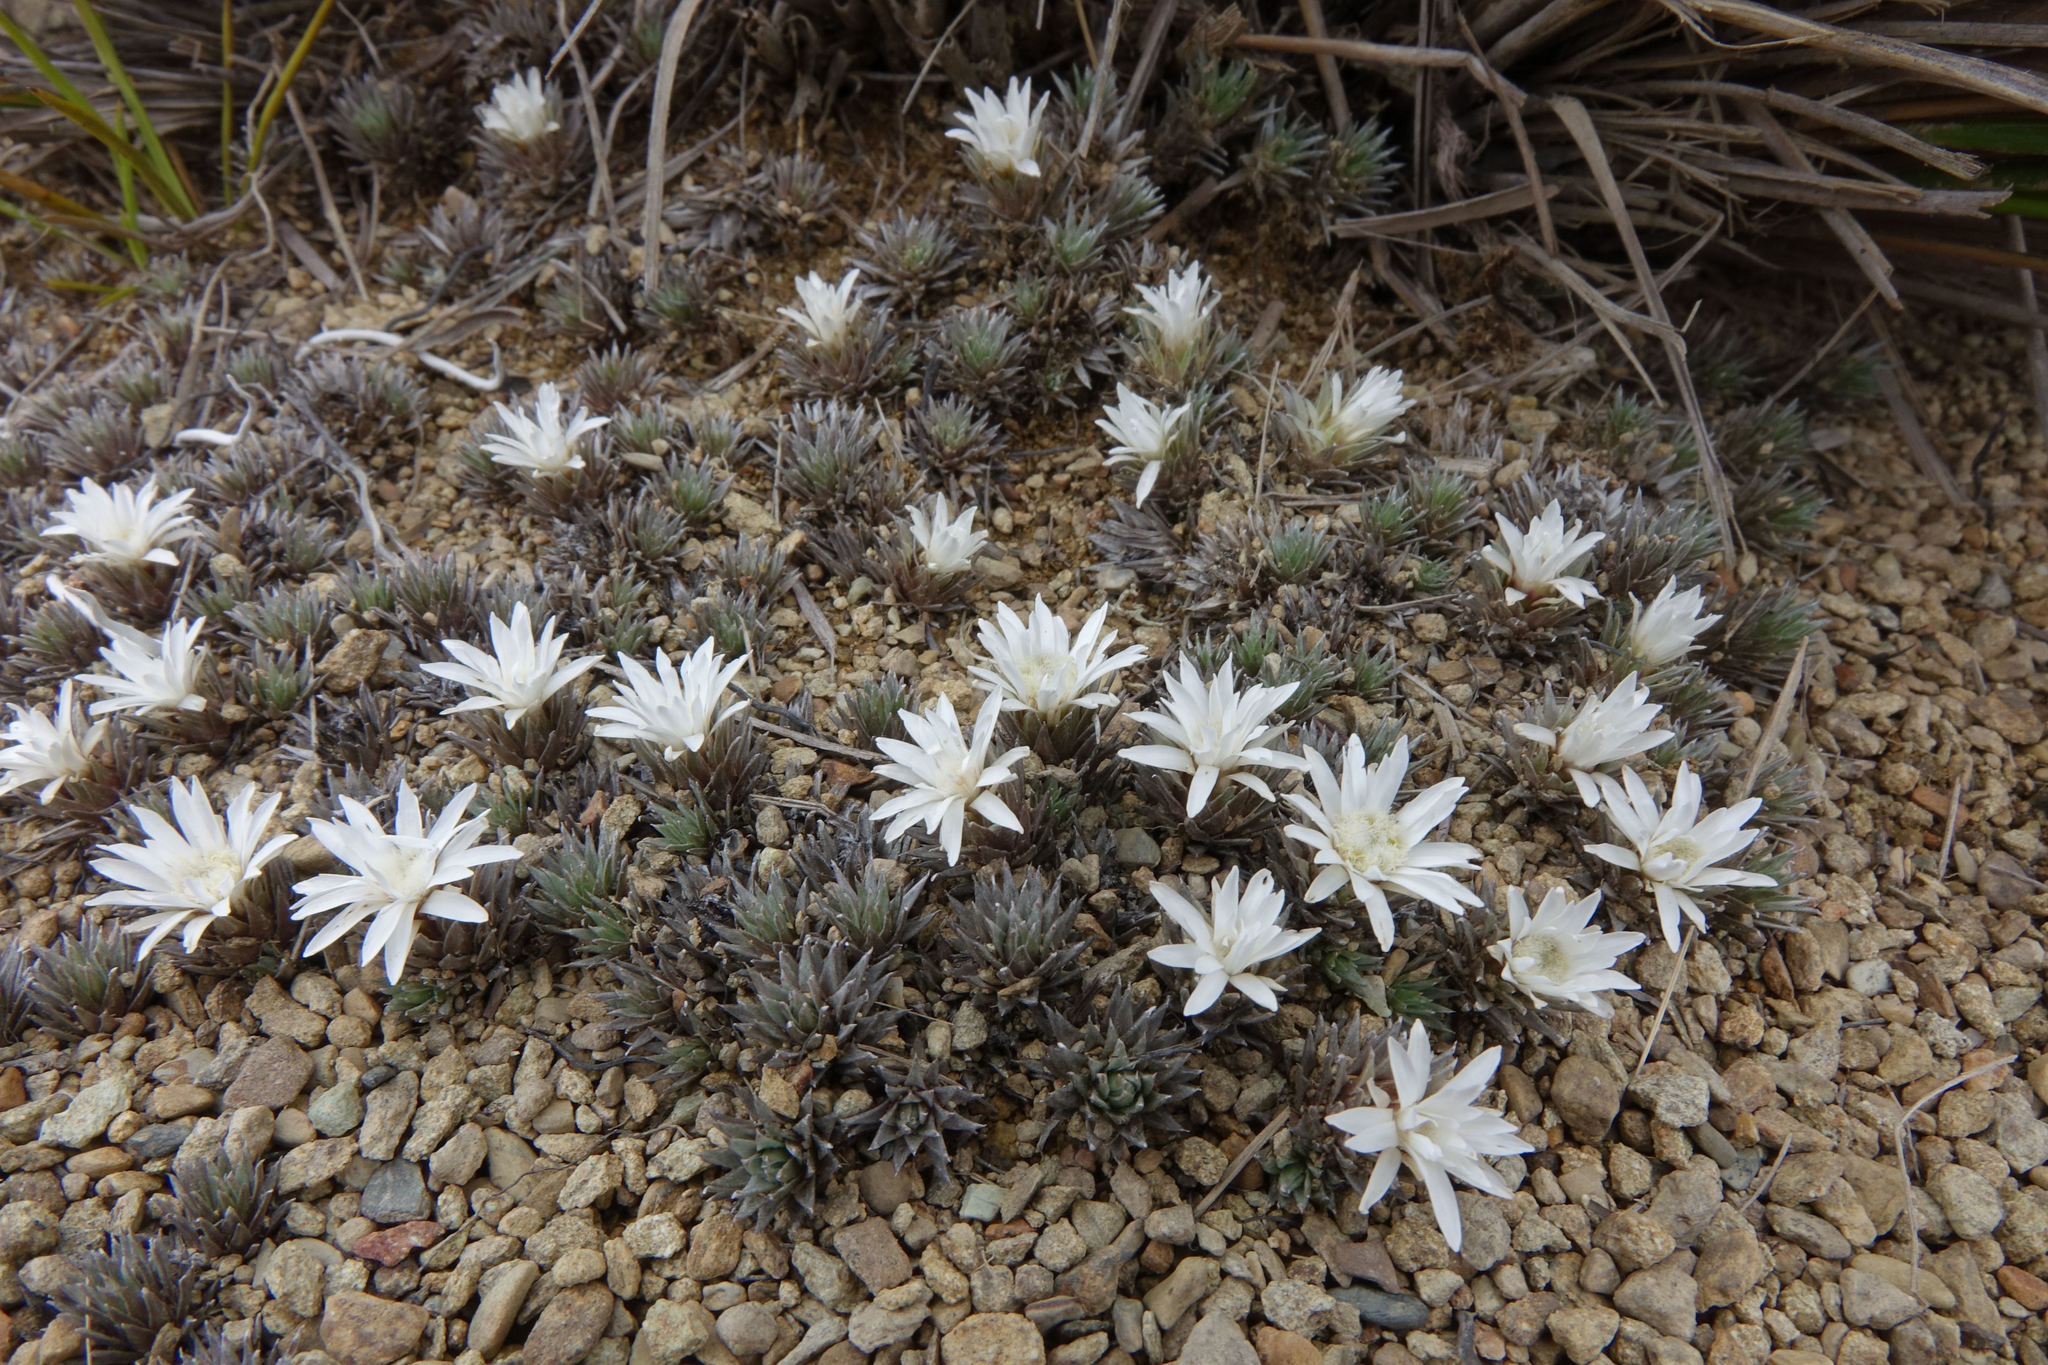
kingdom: Plantae
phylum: Tracheophyta
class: Magnoliopsida
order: Asterales
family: Asteraceae
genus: Raoulia
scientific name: Raoulia grandiflora
